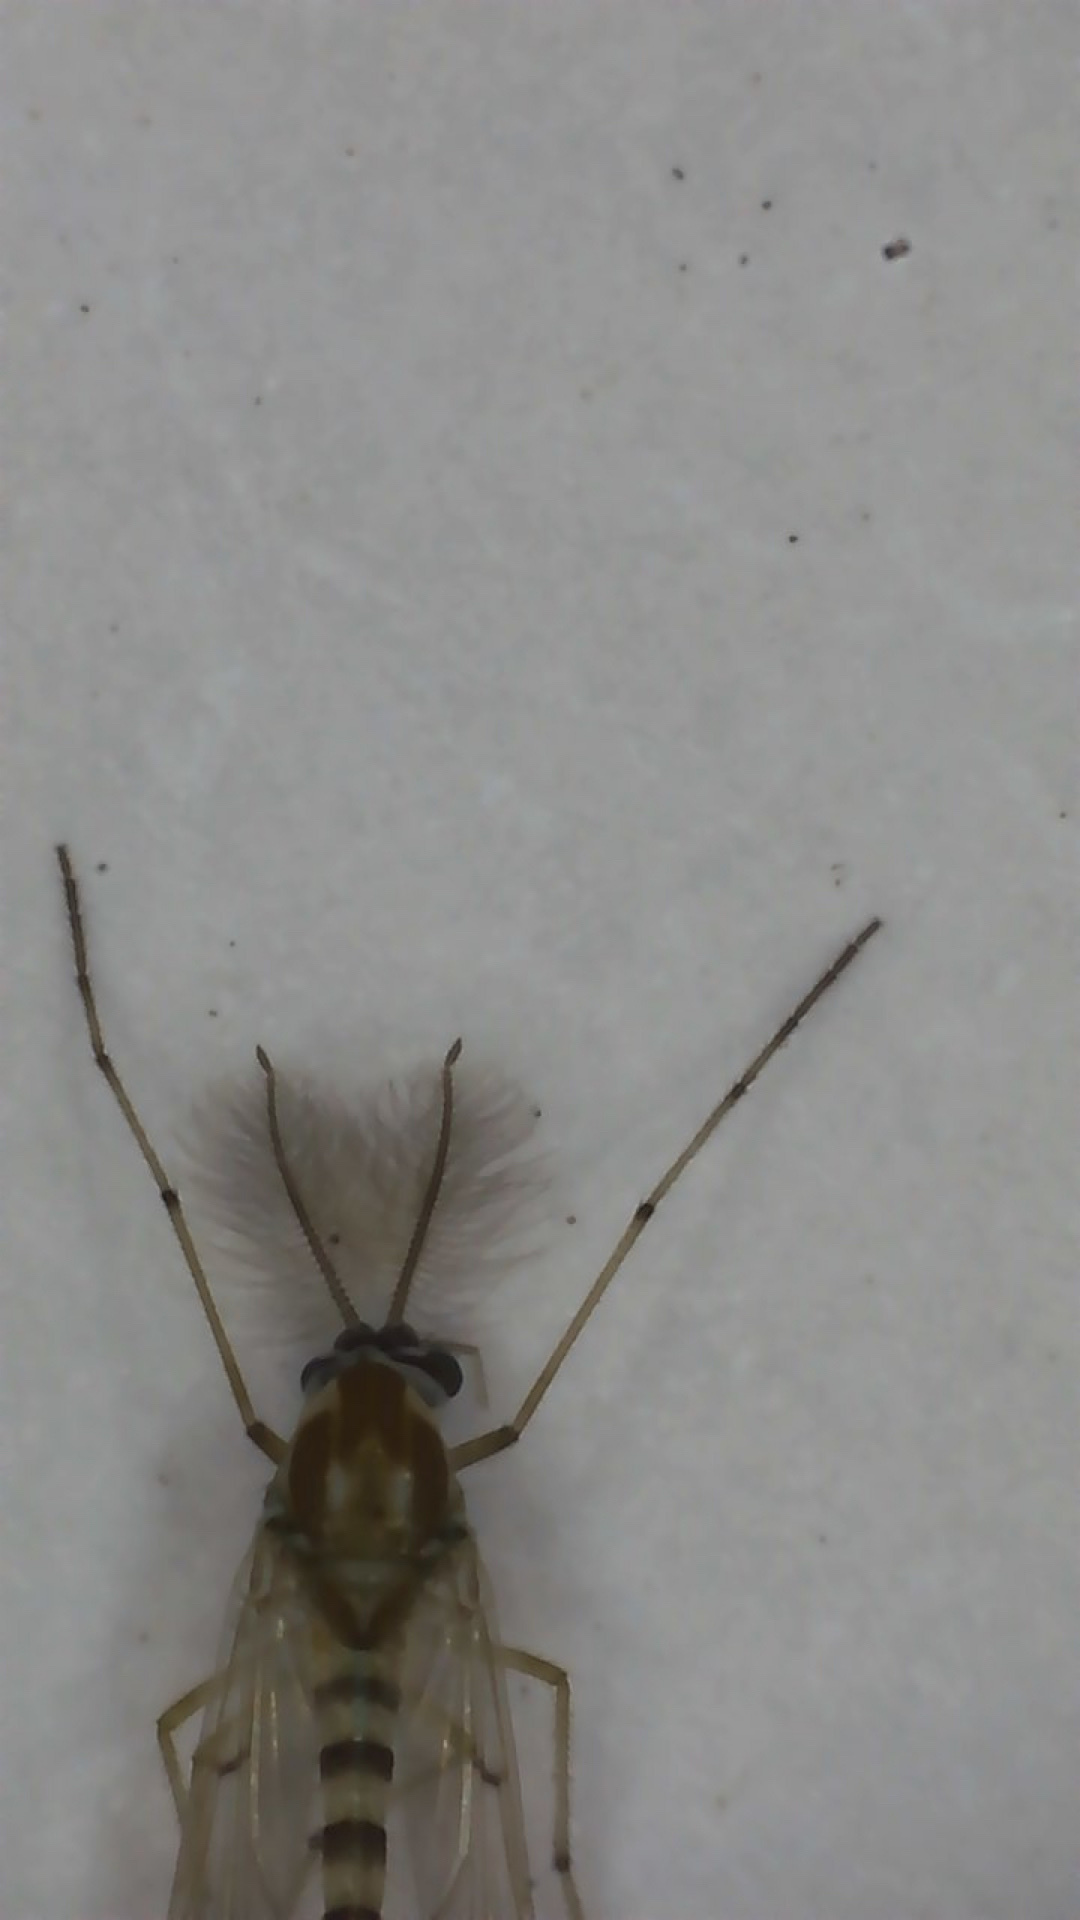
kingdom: Animalia
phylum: Arthropoda
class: Insecta
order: Diptera
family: Chironomidae
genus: Procladius
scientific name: Procladius bellus
